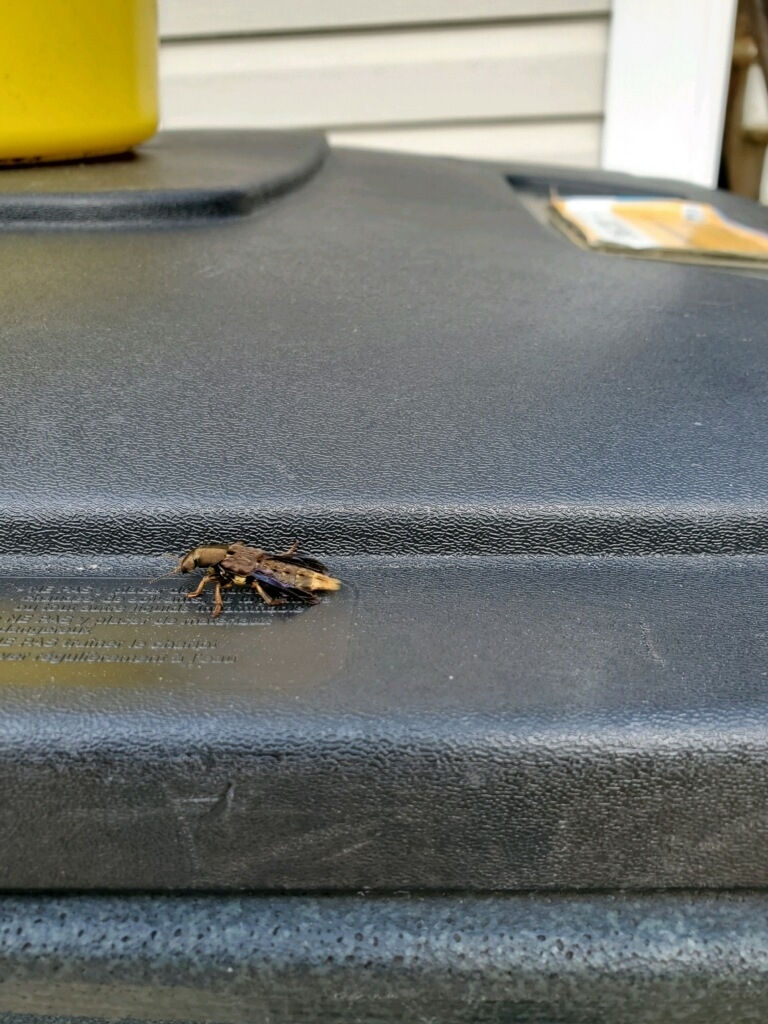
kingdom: Animalia
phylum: Arthropoda
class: Insecta
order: Coleoptera
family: Staphylinidae
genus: Platydracus
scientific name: Platydracus maculosus
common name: Brown rove beetle
